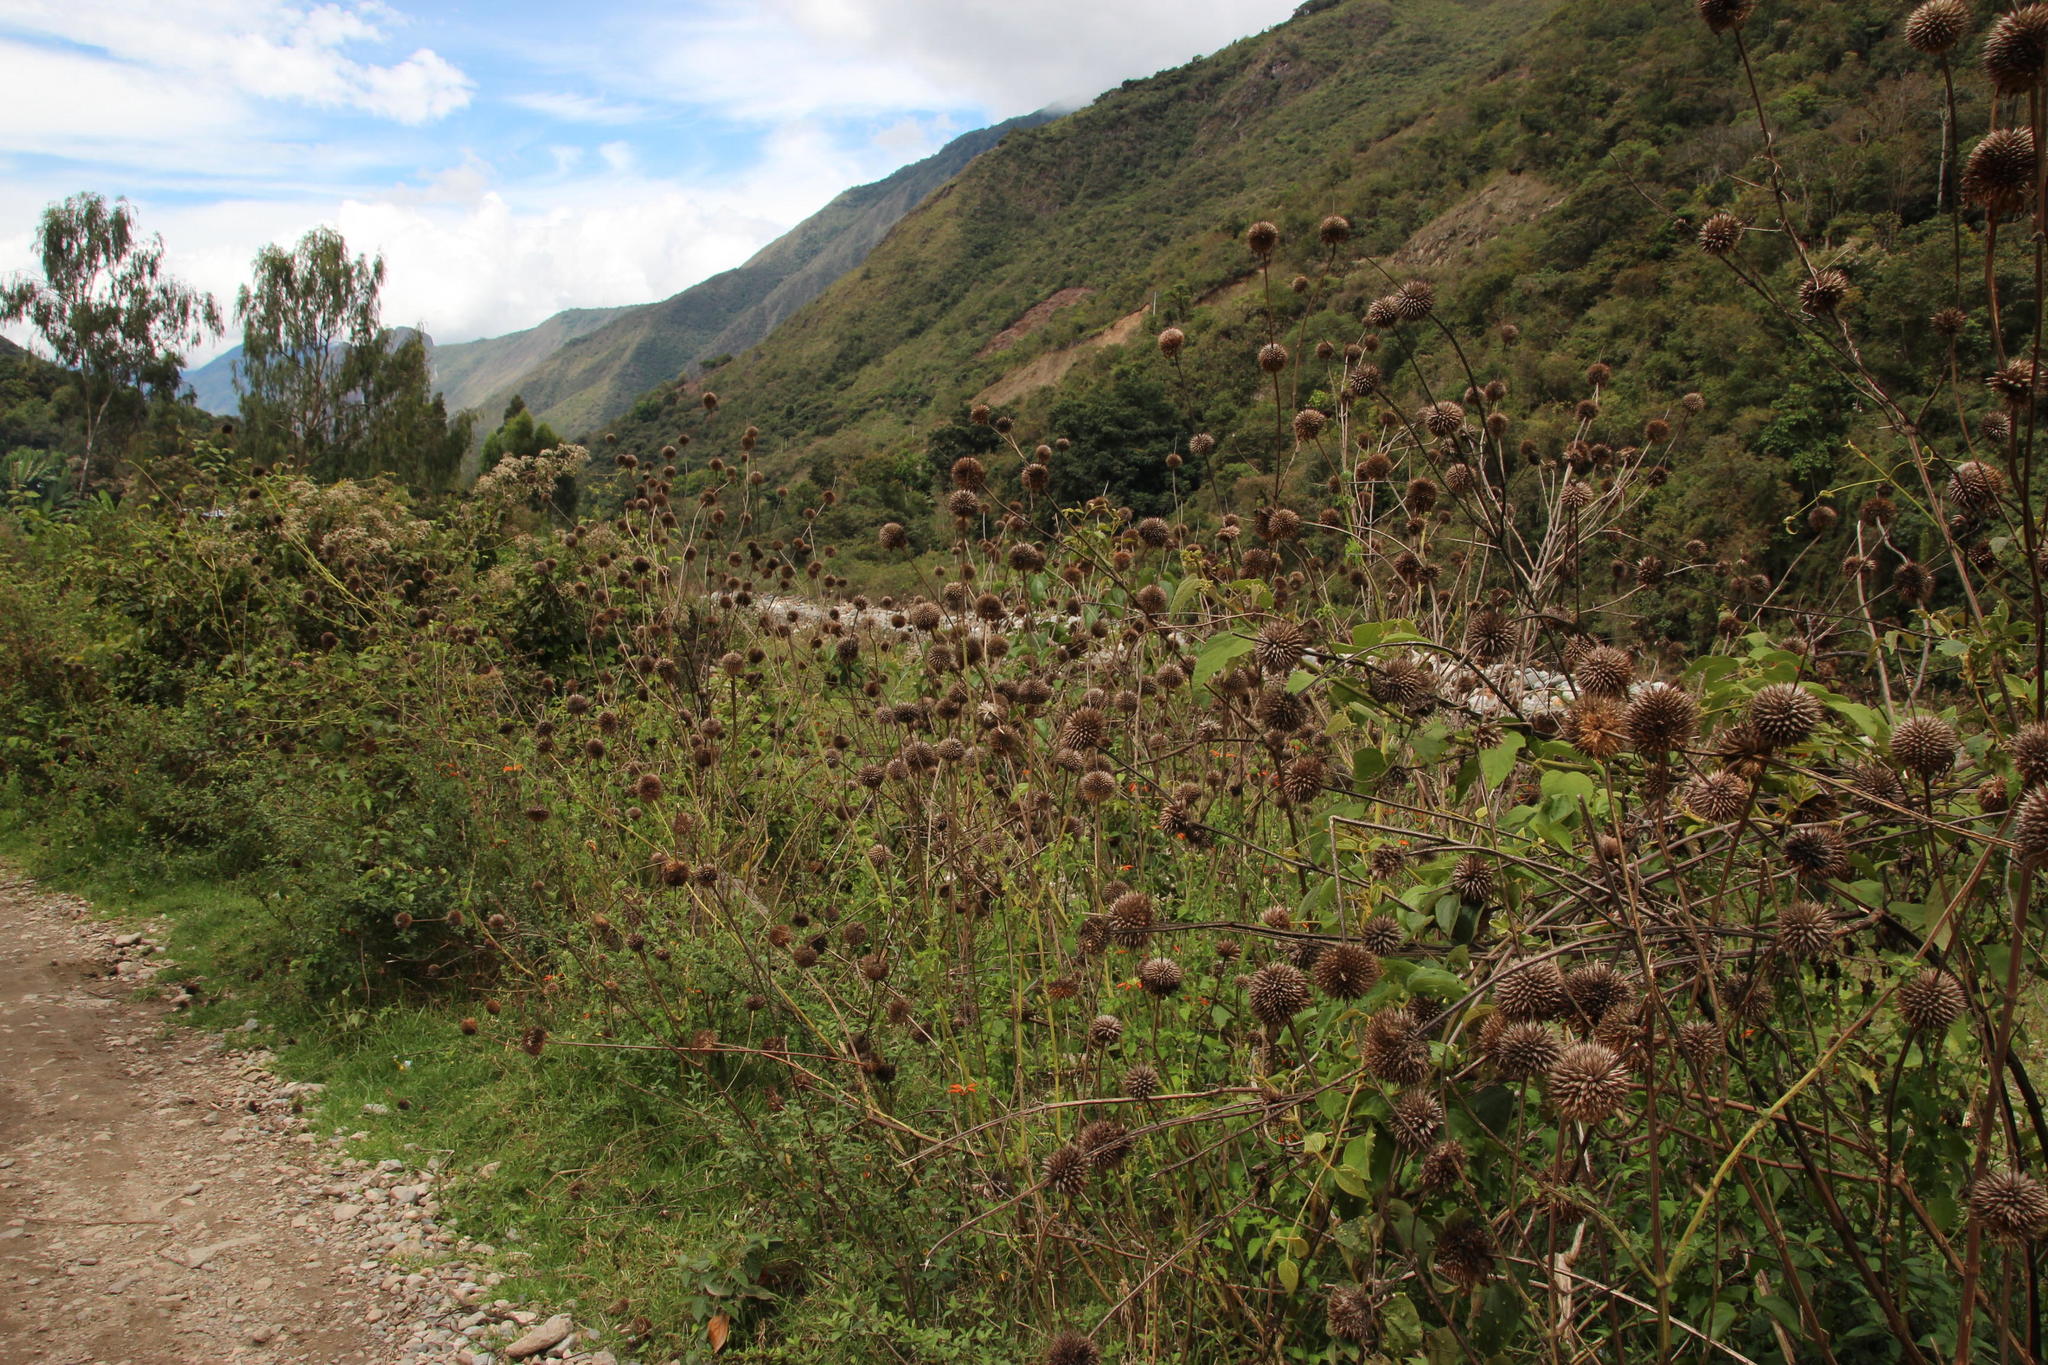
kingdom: Plantae
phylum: Tracheophyta
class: Magnoliopsida
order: Lamiales
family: Lamiaceae
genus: Leonotis
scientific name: Leonotis nepetifolia
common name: Christmas candlestick
